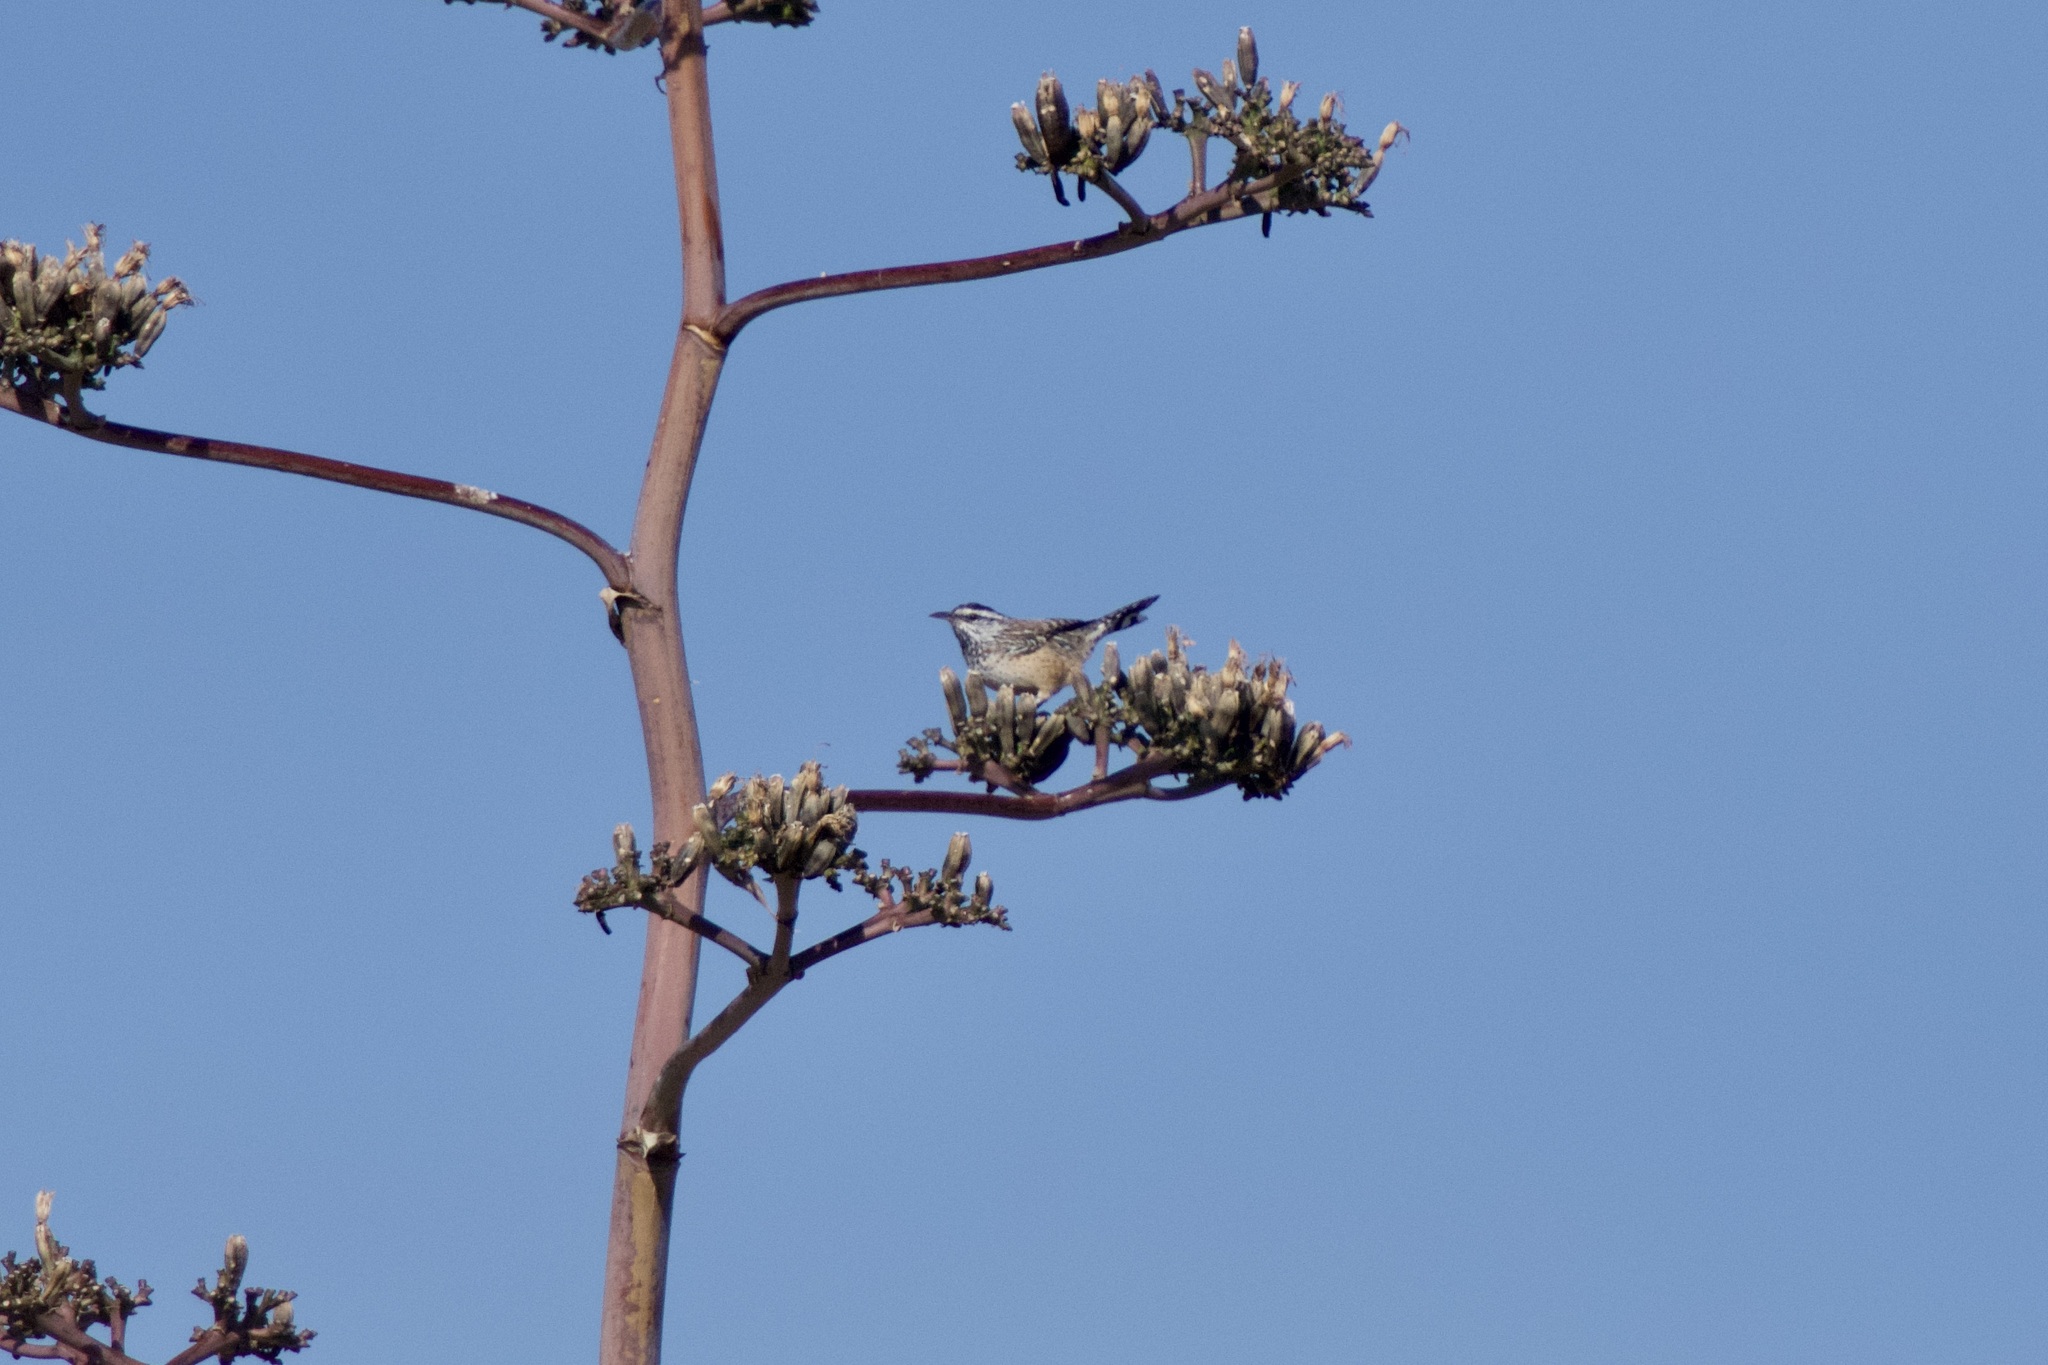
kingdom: Animalia
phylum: Chordata
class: Aves
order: Passeriformes
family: Troglodytidae
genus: Campylorhynchus
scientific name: Campylorhynchus brunneicapillus
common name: Cactus wren
